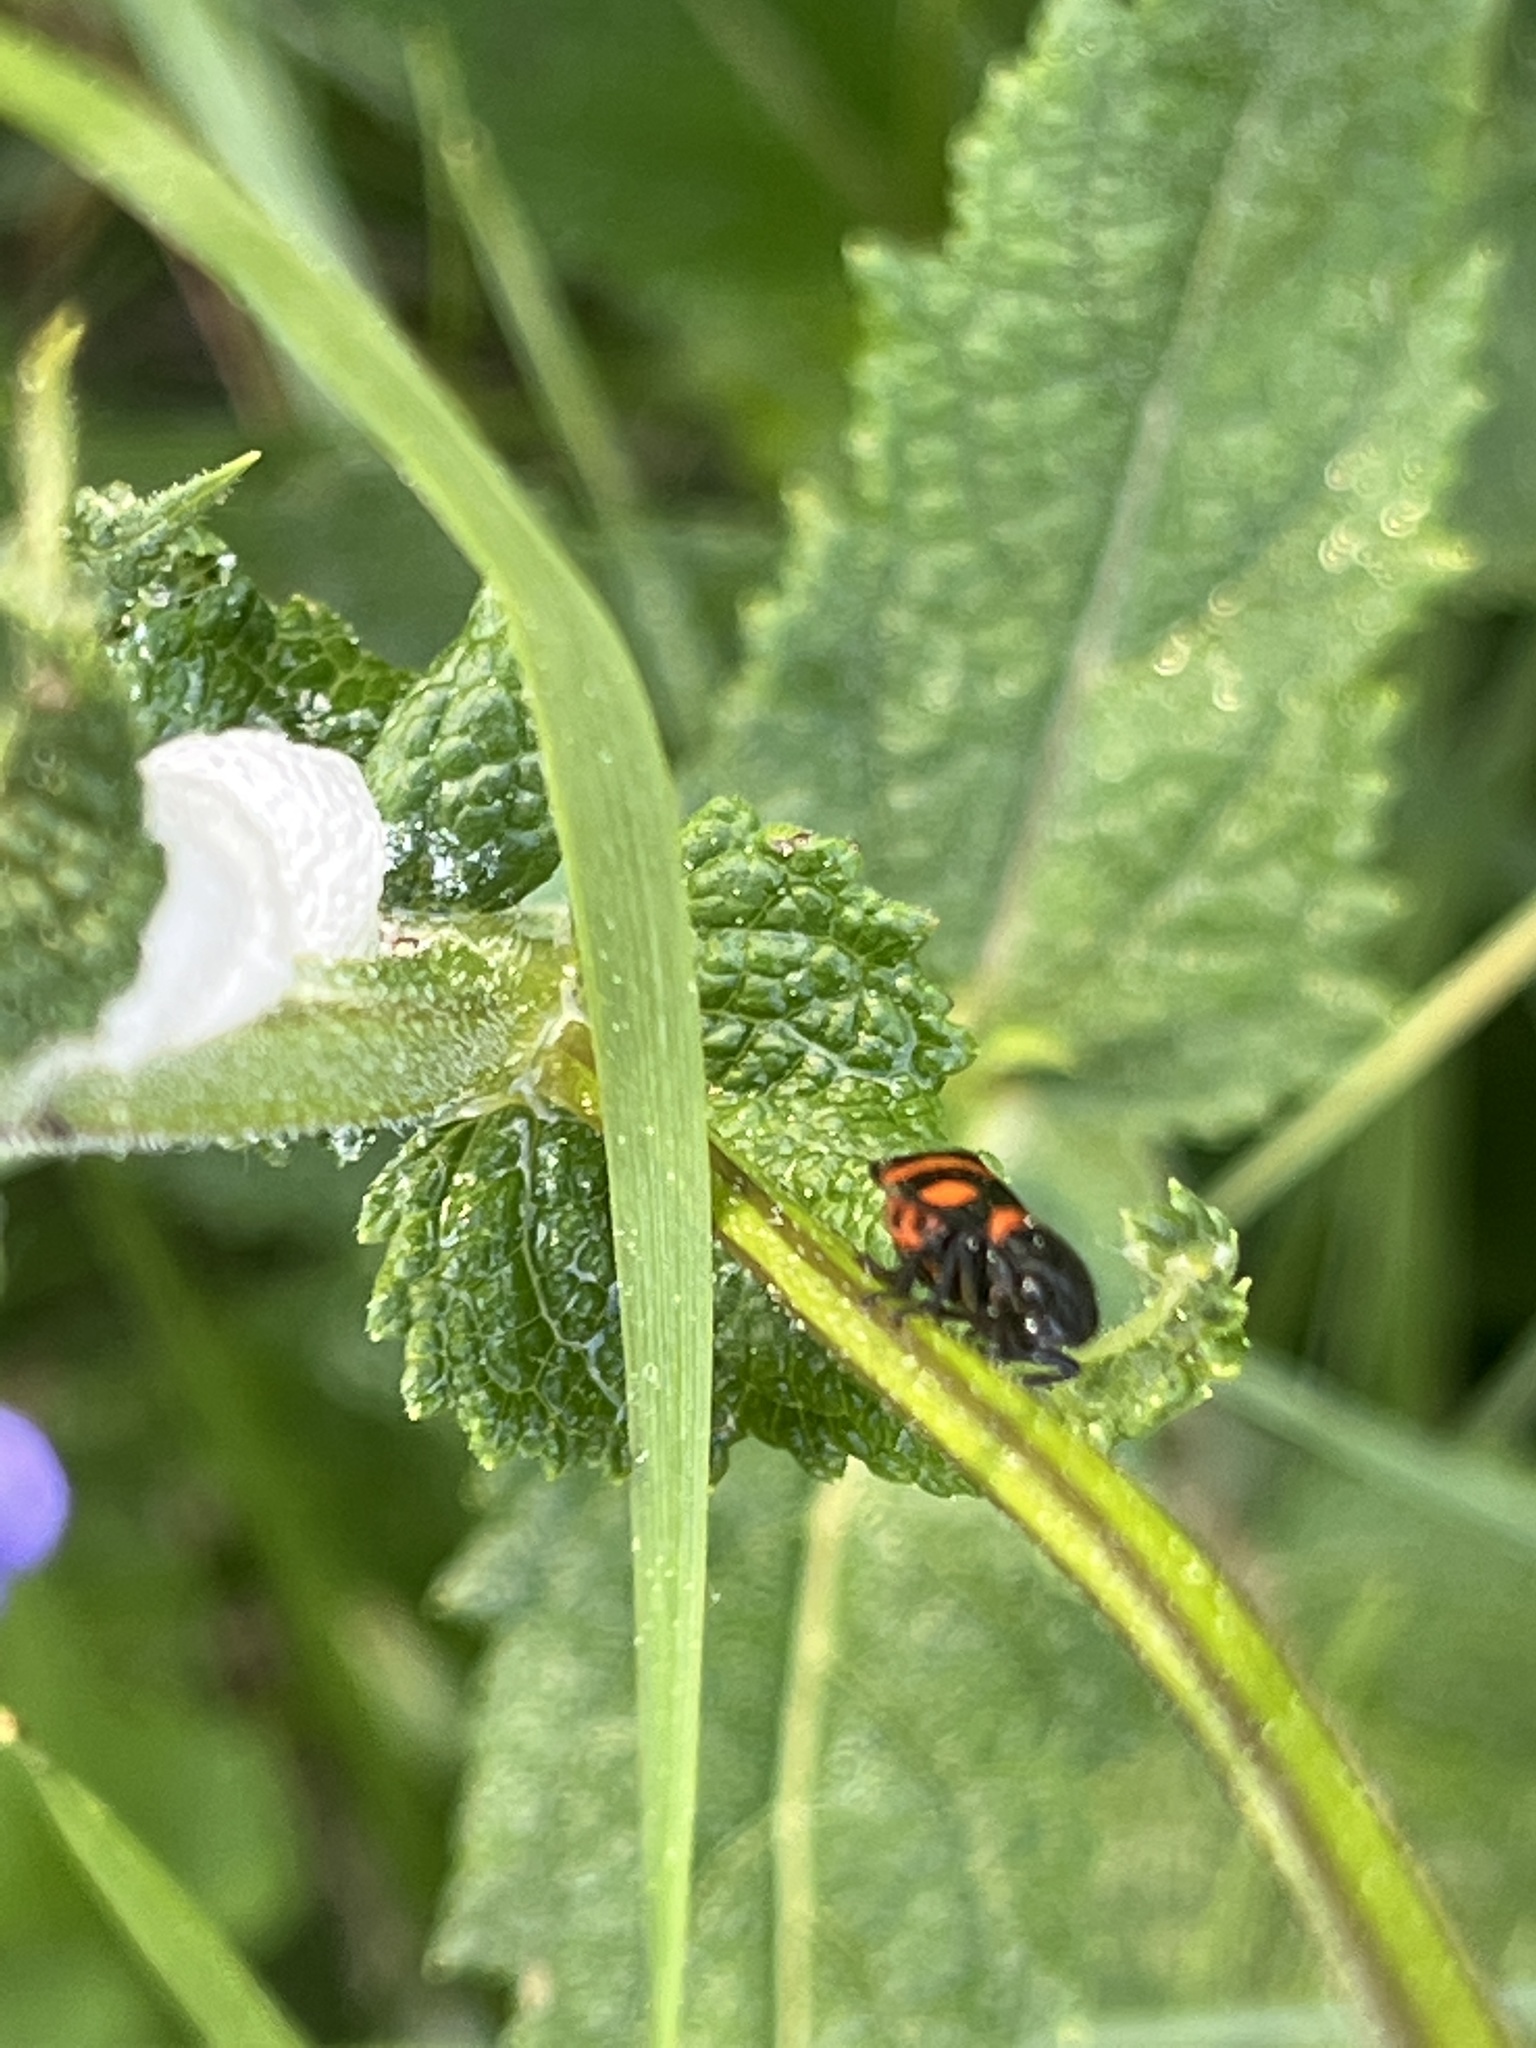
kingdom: Animalia
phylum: Arthropoda
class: Insecta
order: Hemiptera
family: Cercopidae
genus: Cercopis
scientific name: Cercopis sanguinolenta
